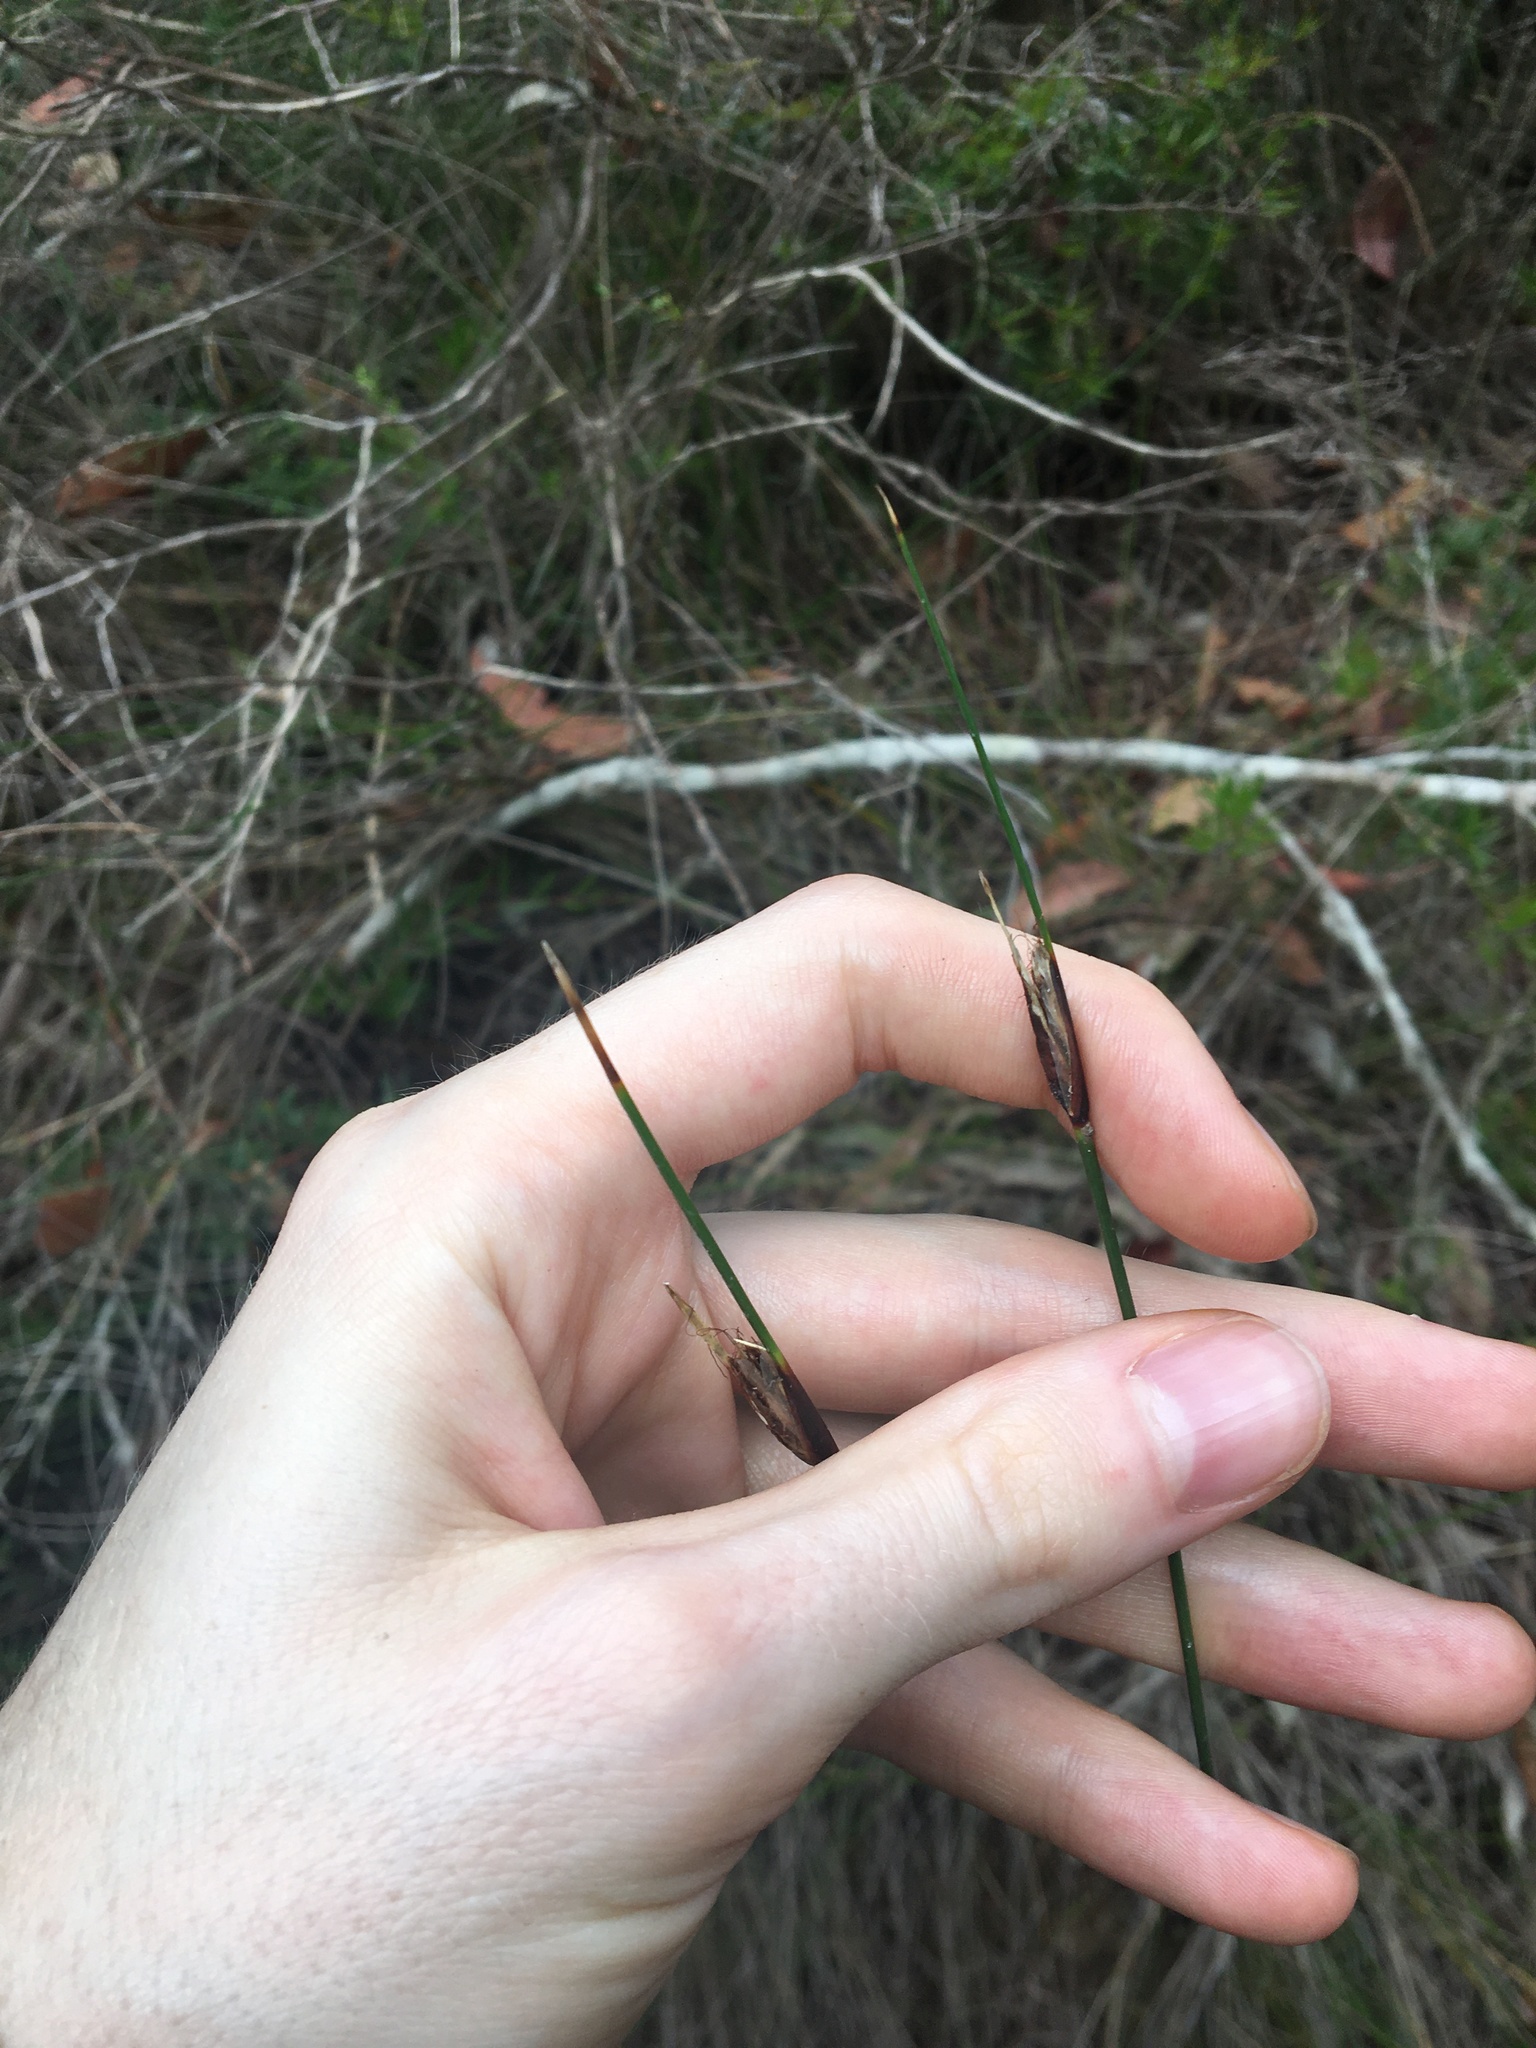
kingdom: Plantae
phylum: Tracheophyta
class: Liliopsida
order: Poales
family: Cyperaceae
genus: Ptilothrix
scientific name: Ptilothrix deusta
